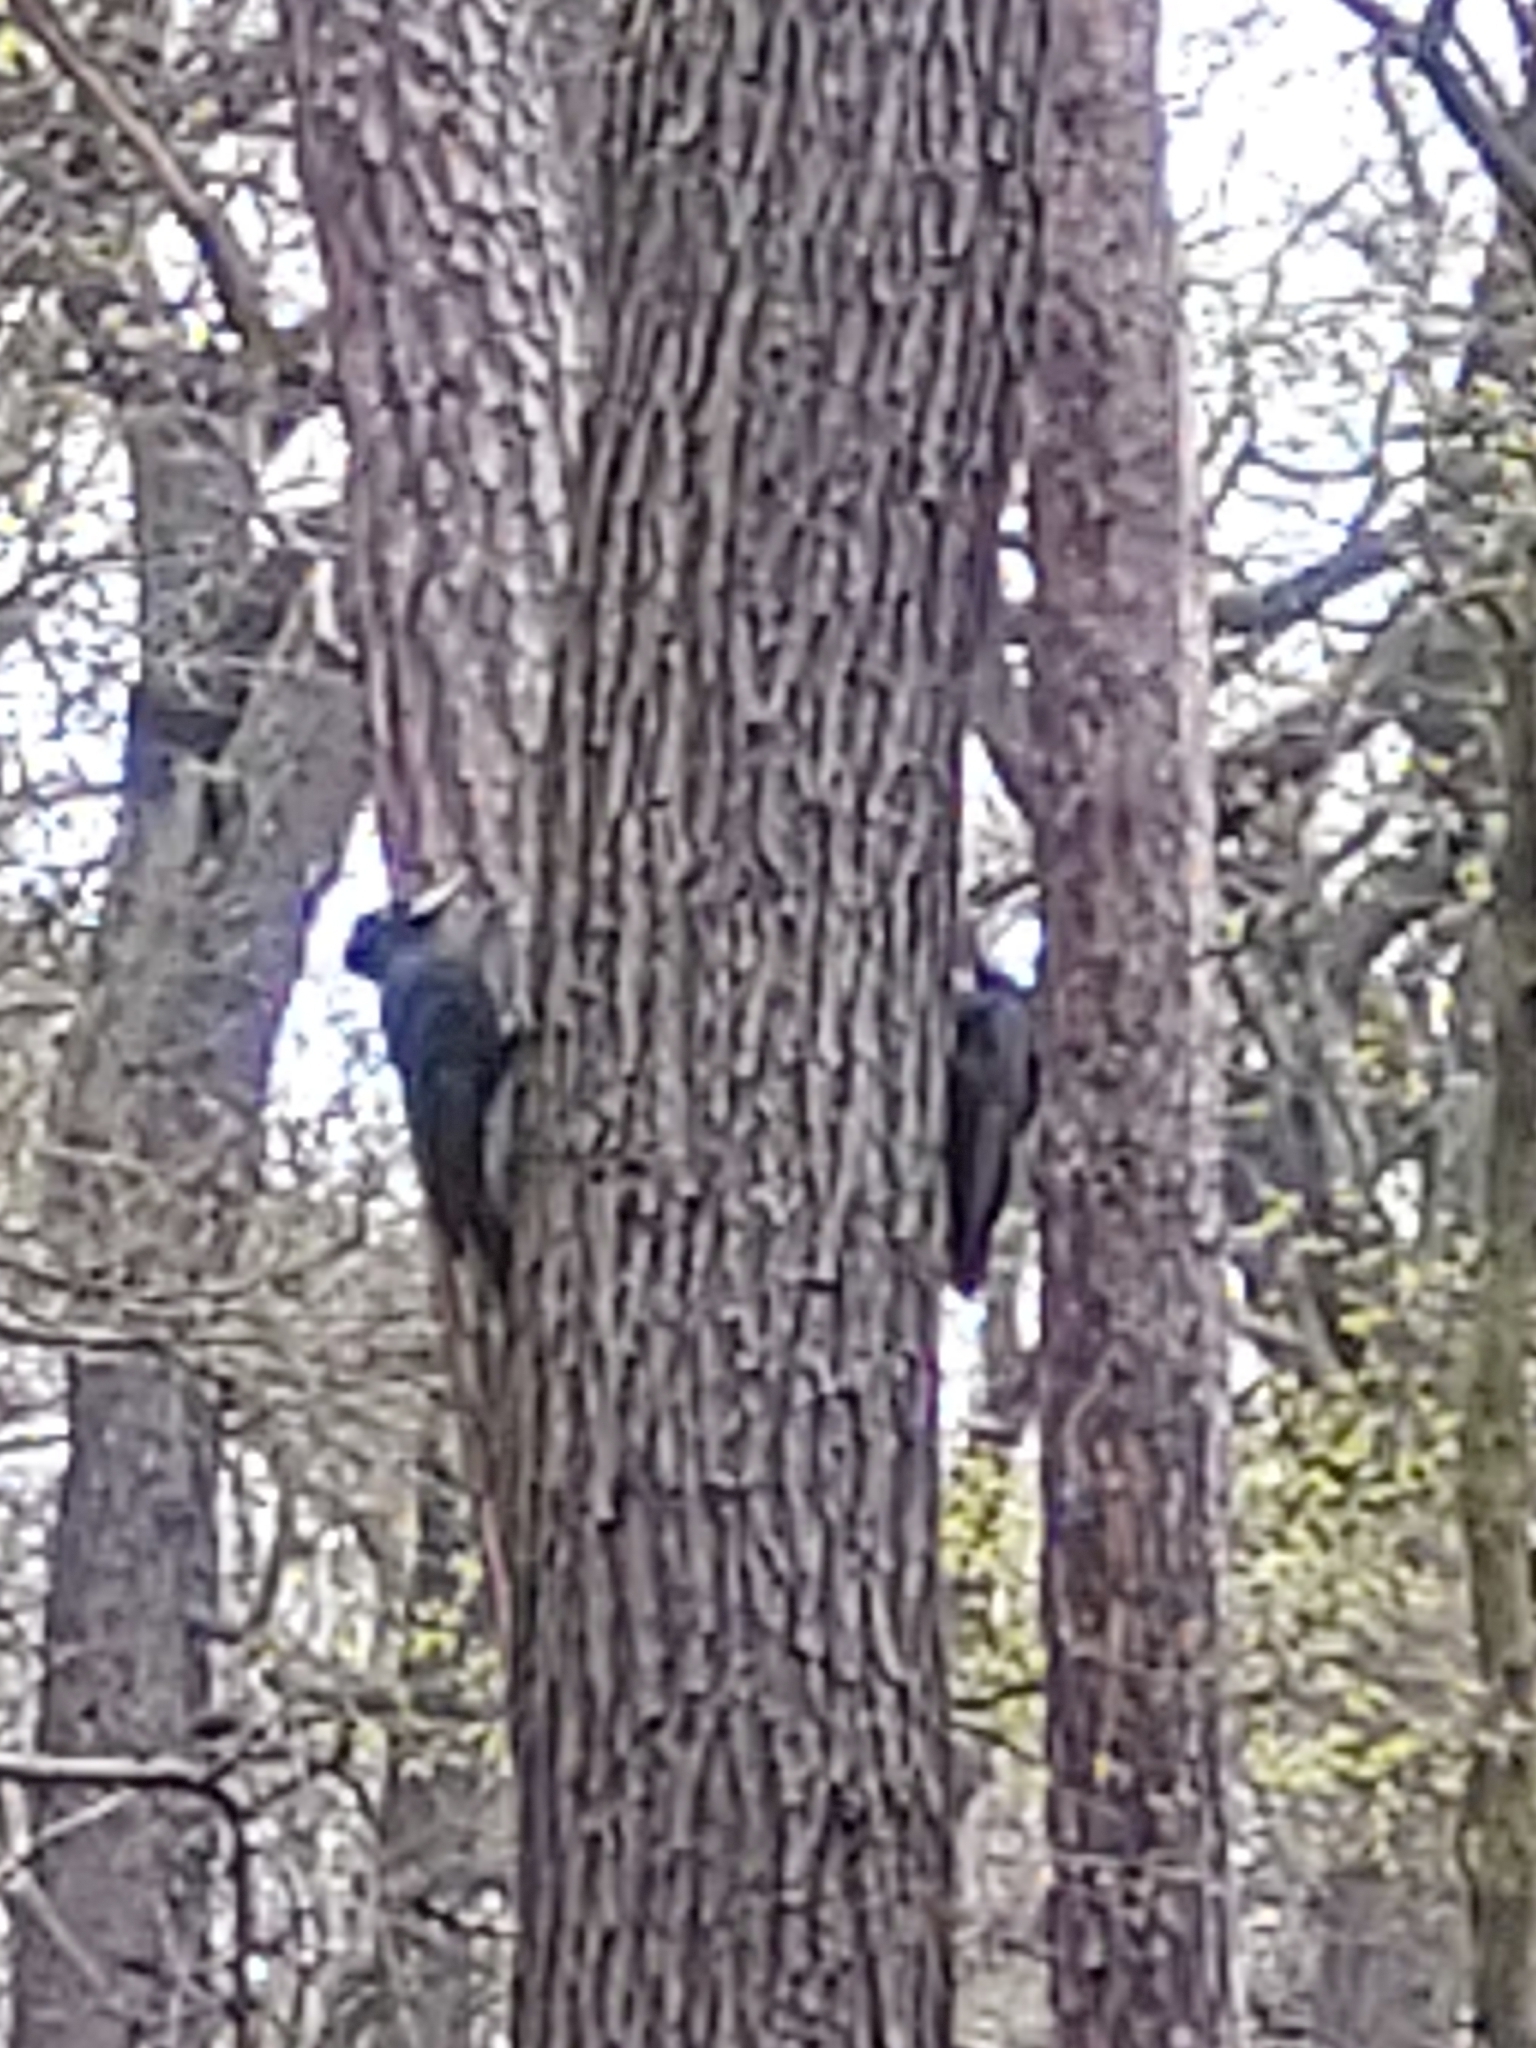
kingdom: Animalia
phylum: Chordata
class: Aves
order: Piciformes
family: Picidae
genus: Dryocopus
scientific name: Dryocopus martius
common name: Black woodpecker
